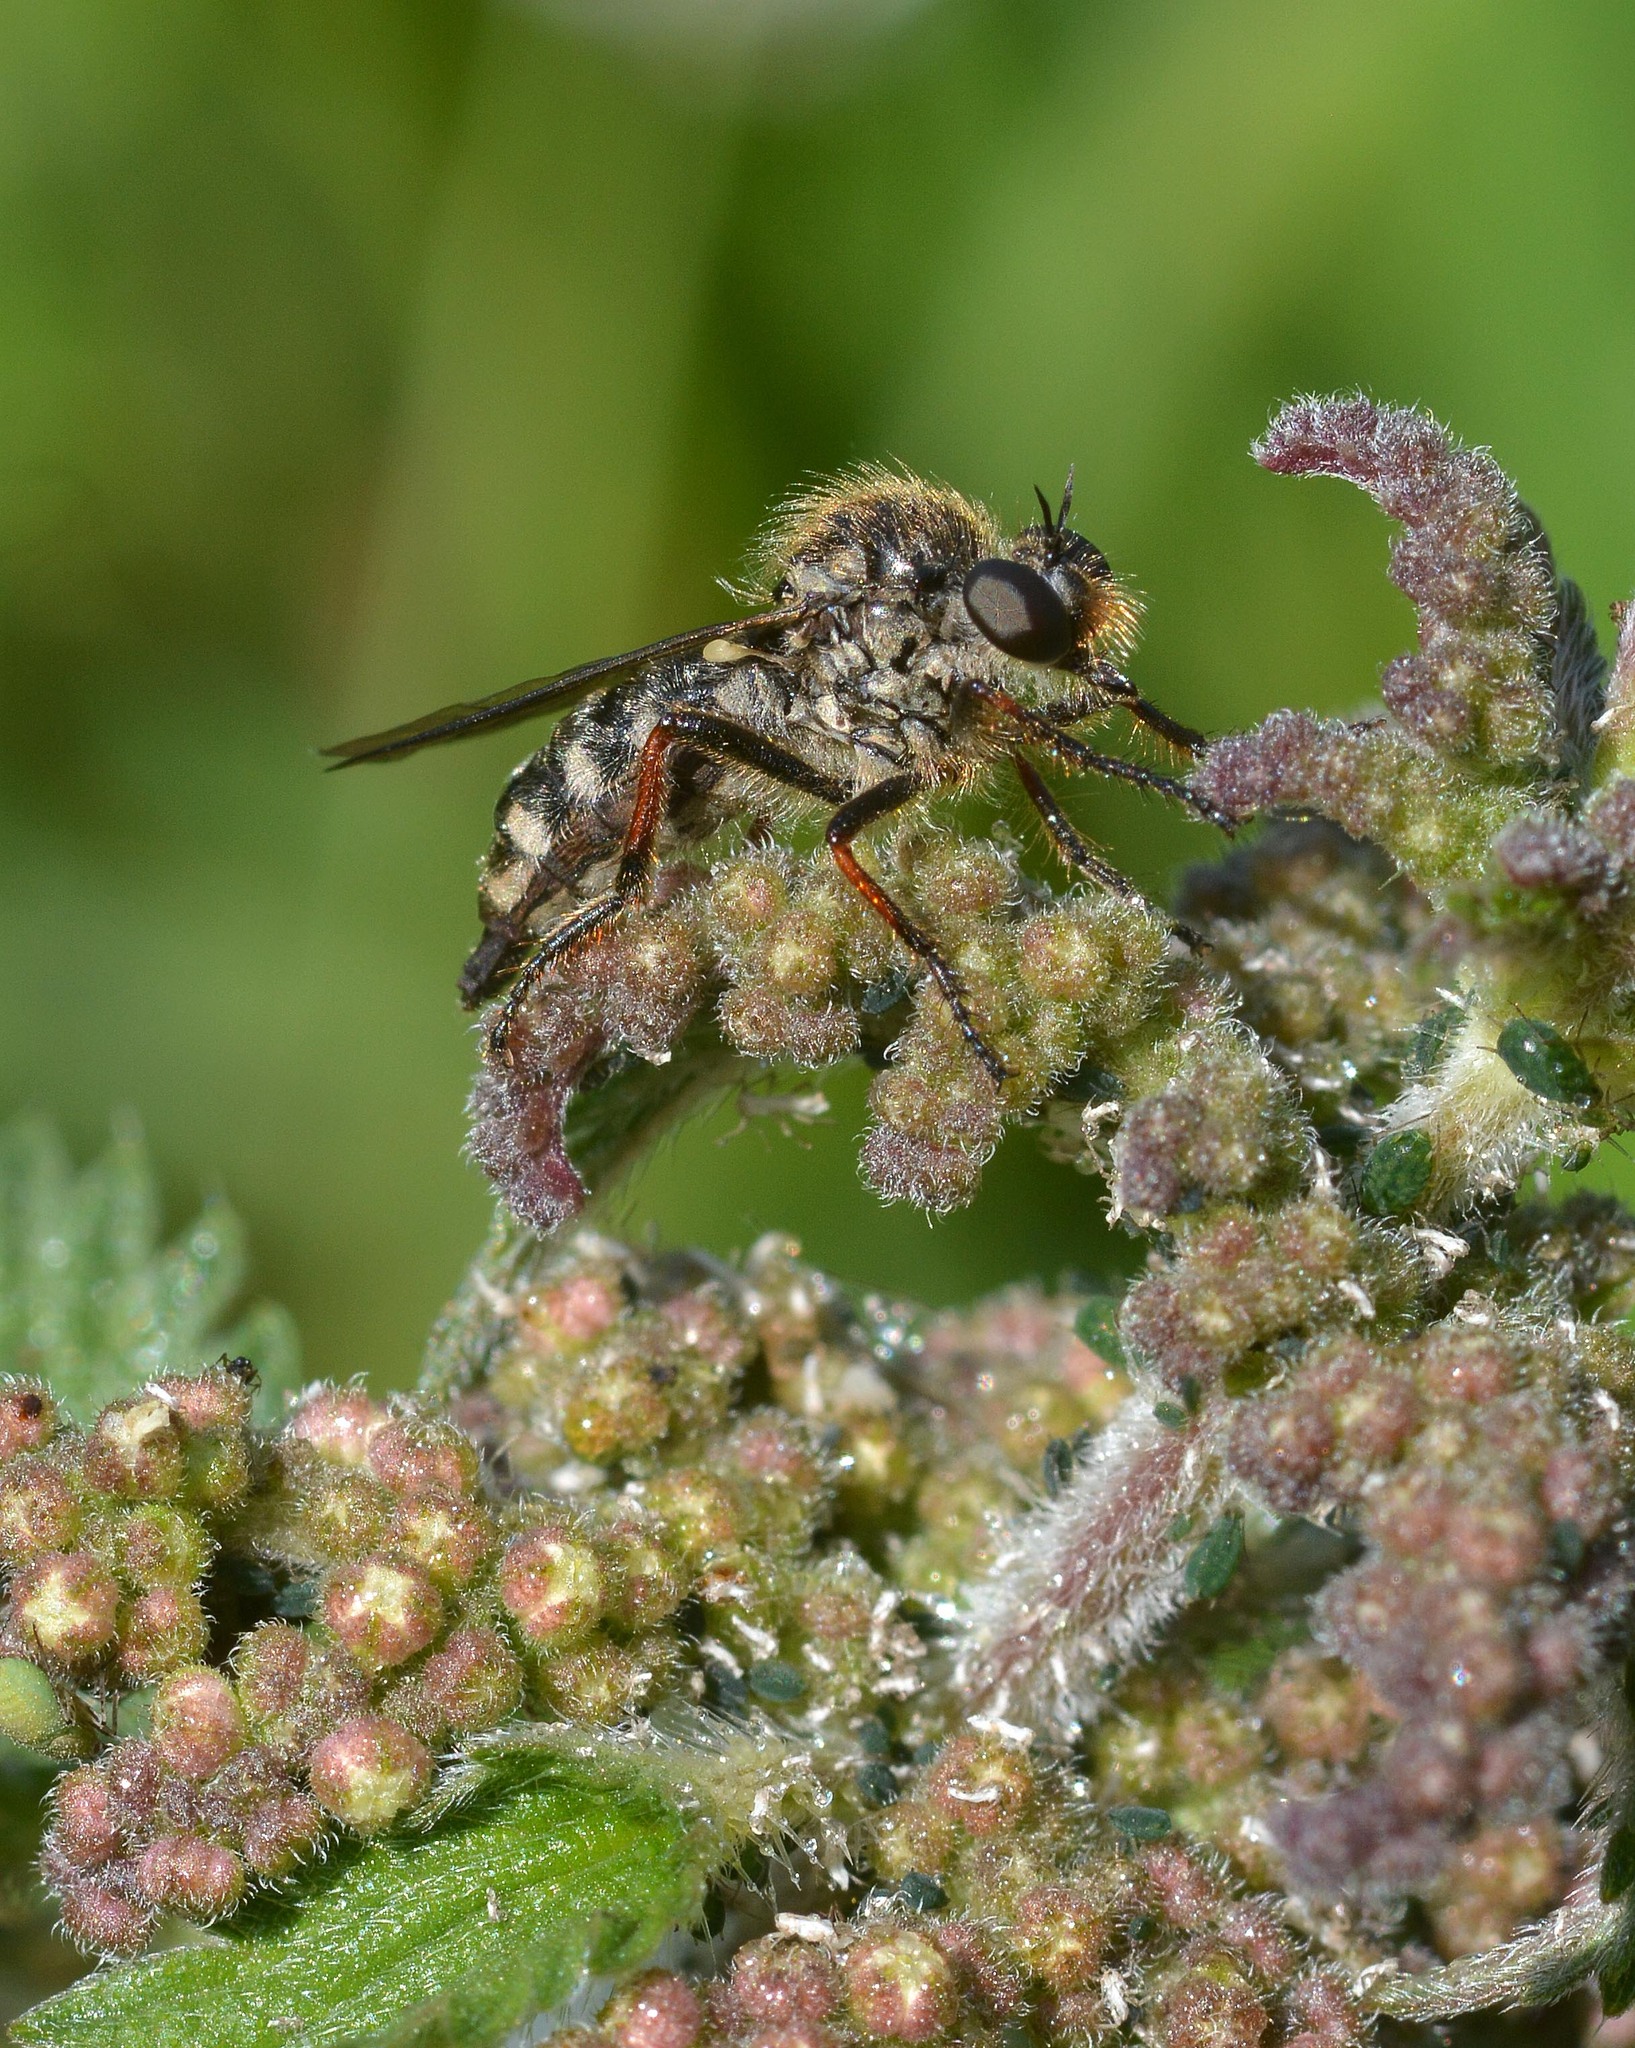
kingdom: Animalia
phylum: Arthropoda
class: Insecta
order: Diptera
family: Asilidae
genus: Leptarthrus
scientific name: Leptarthrus brevirostris
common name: Slender-footed robberfly
